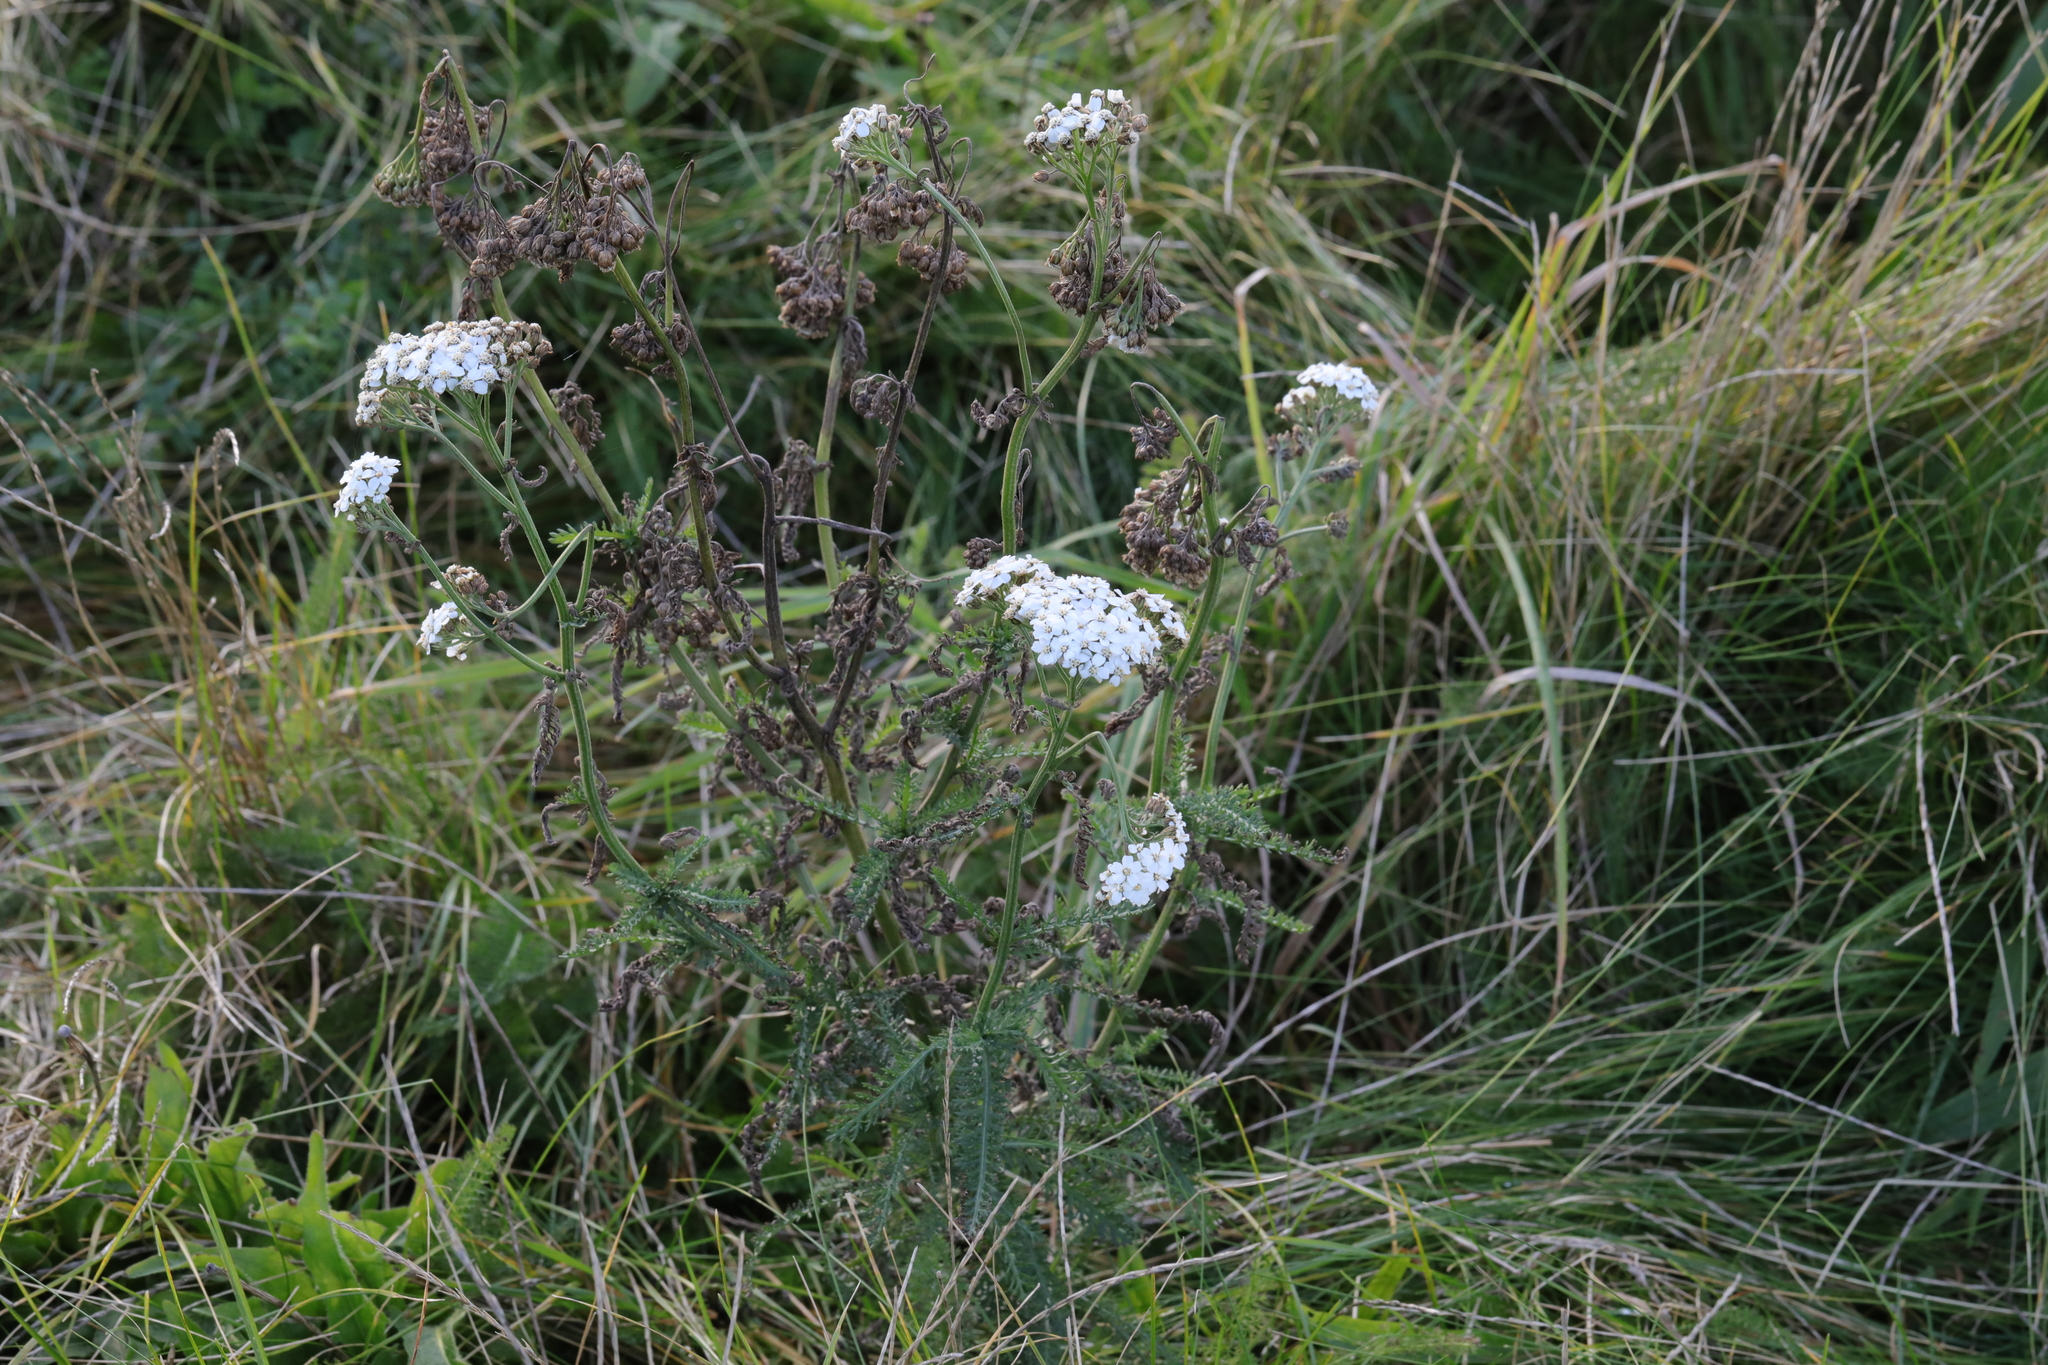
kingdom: Plantae
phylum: Tracheophyta
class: Magnoliopsida
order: Asterales
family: Asteraceae
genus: Achillea
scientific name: Achillea millefolium
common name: Yarrow
